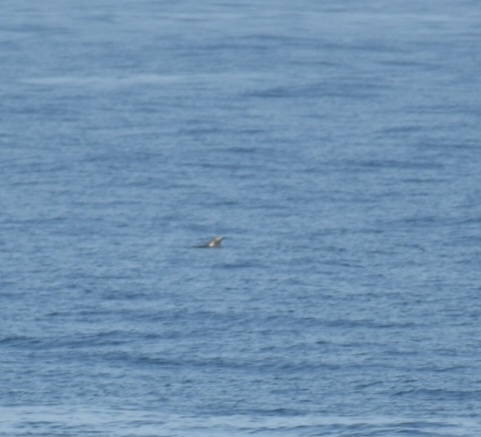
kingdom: Animalia
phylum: Chordata
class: Mammalia
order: Cetacea
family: Delphinidae
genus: Globicephala
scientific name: Globicephala macrorhynchus
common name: Short-finned pilot whale
